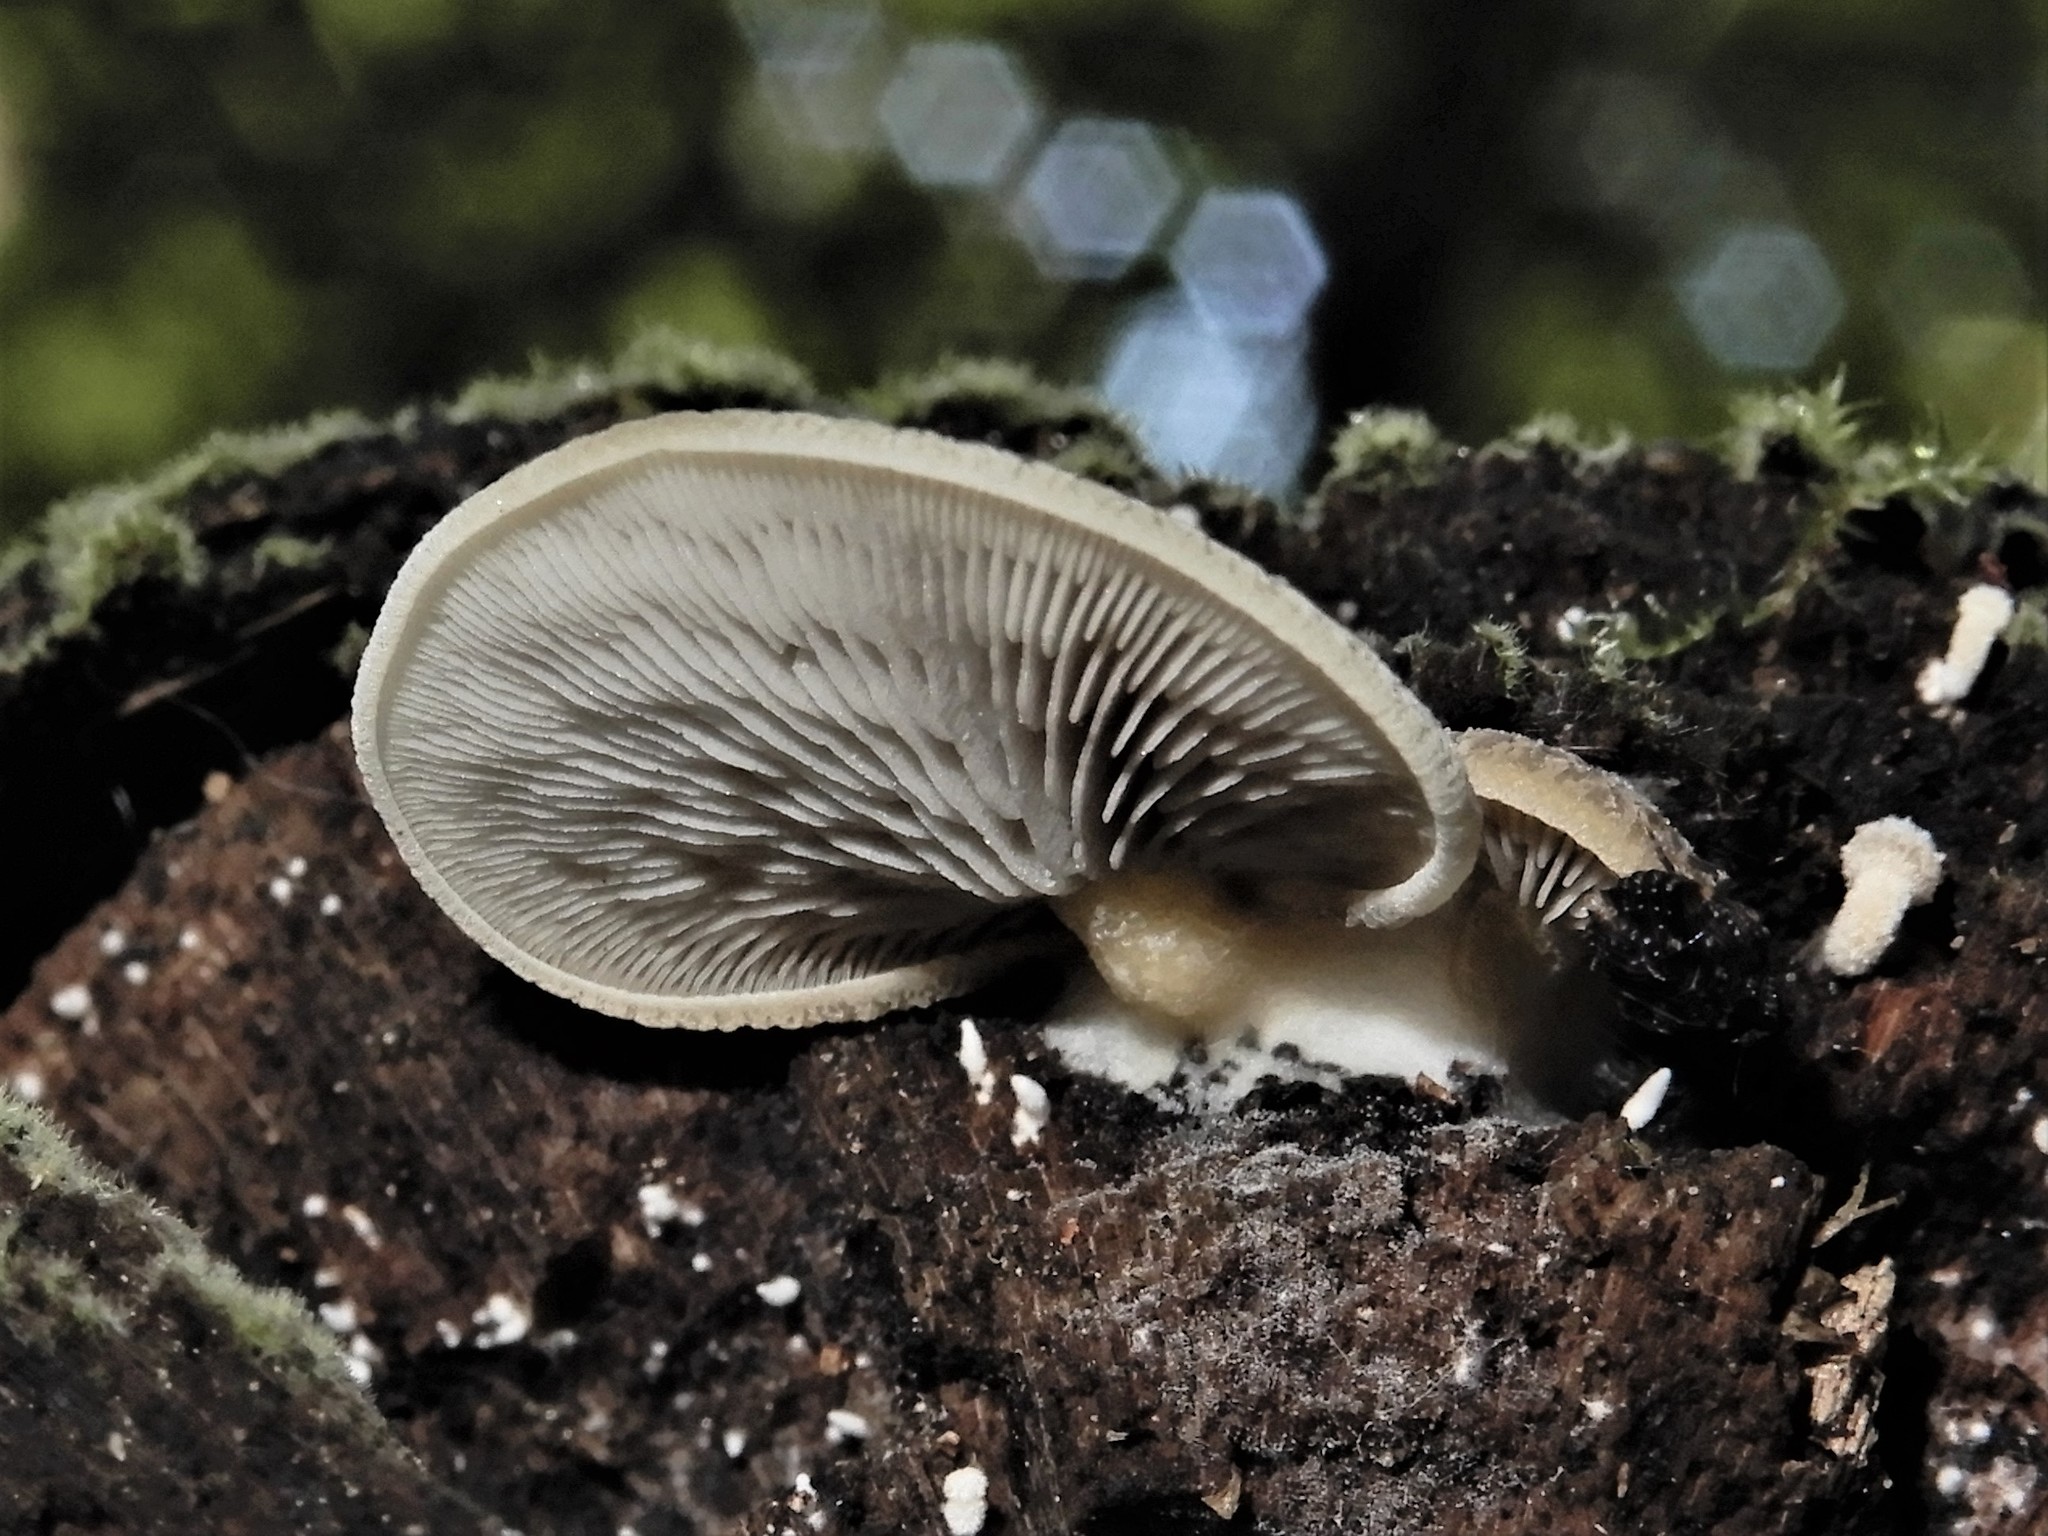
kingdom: Fungi
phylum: Basidiomycota
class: Agaricomycetes
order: Agaricales
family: Tricholomataceae
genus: Conchomyces
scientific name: Conchomyces bursiformis
